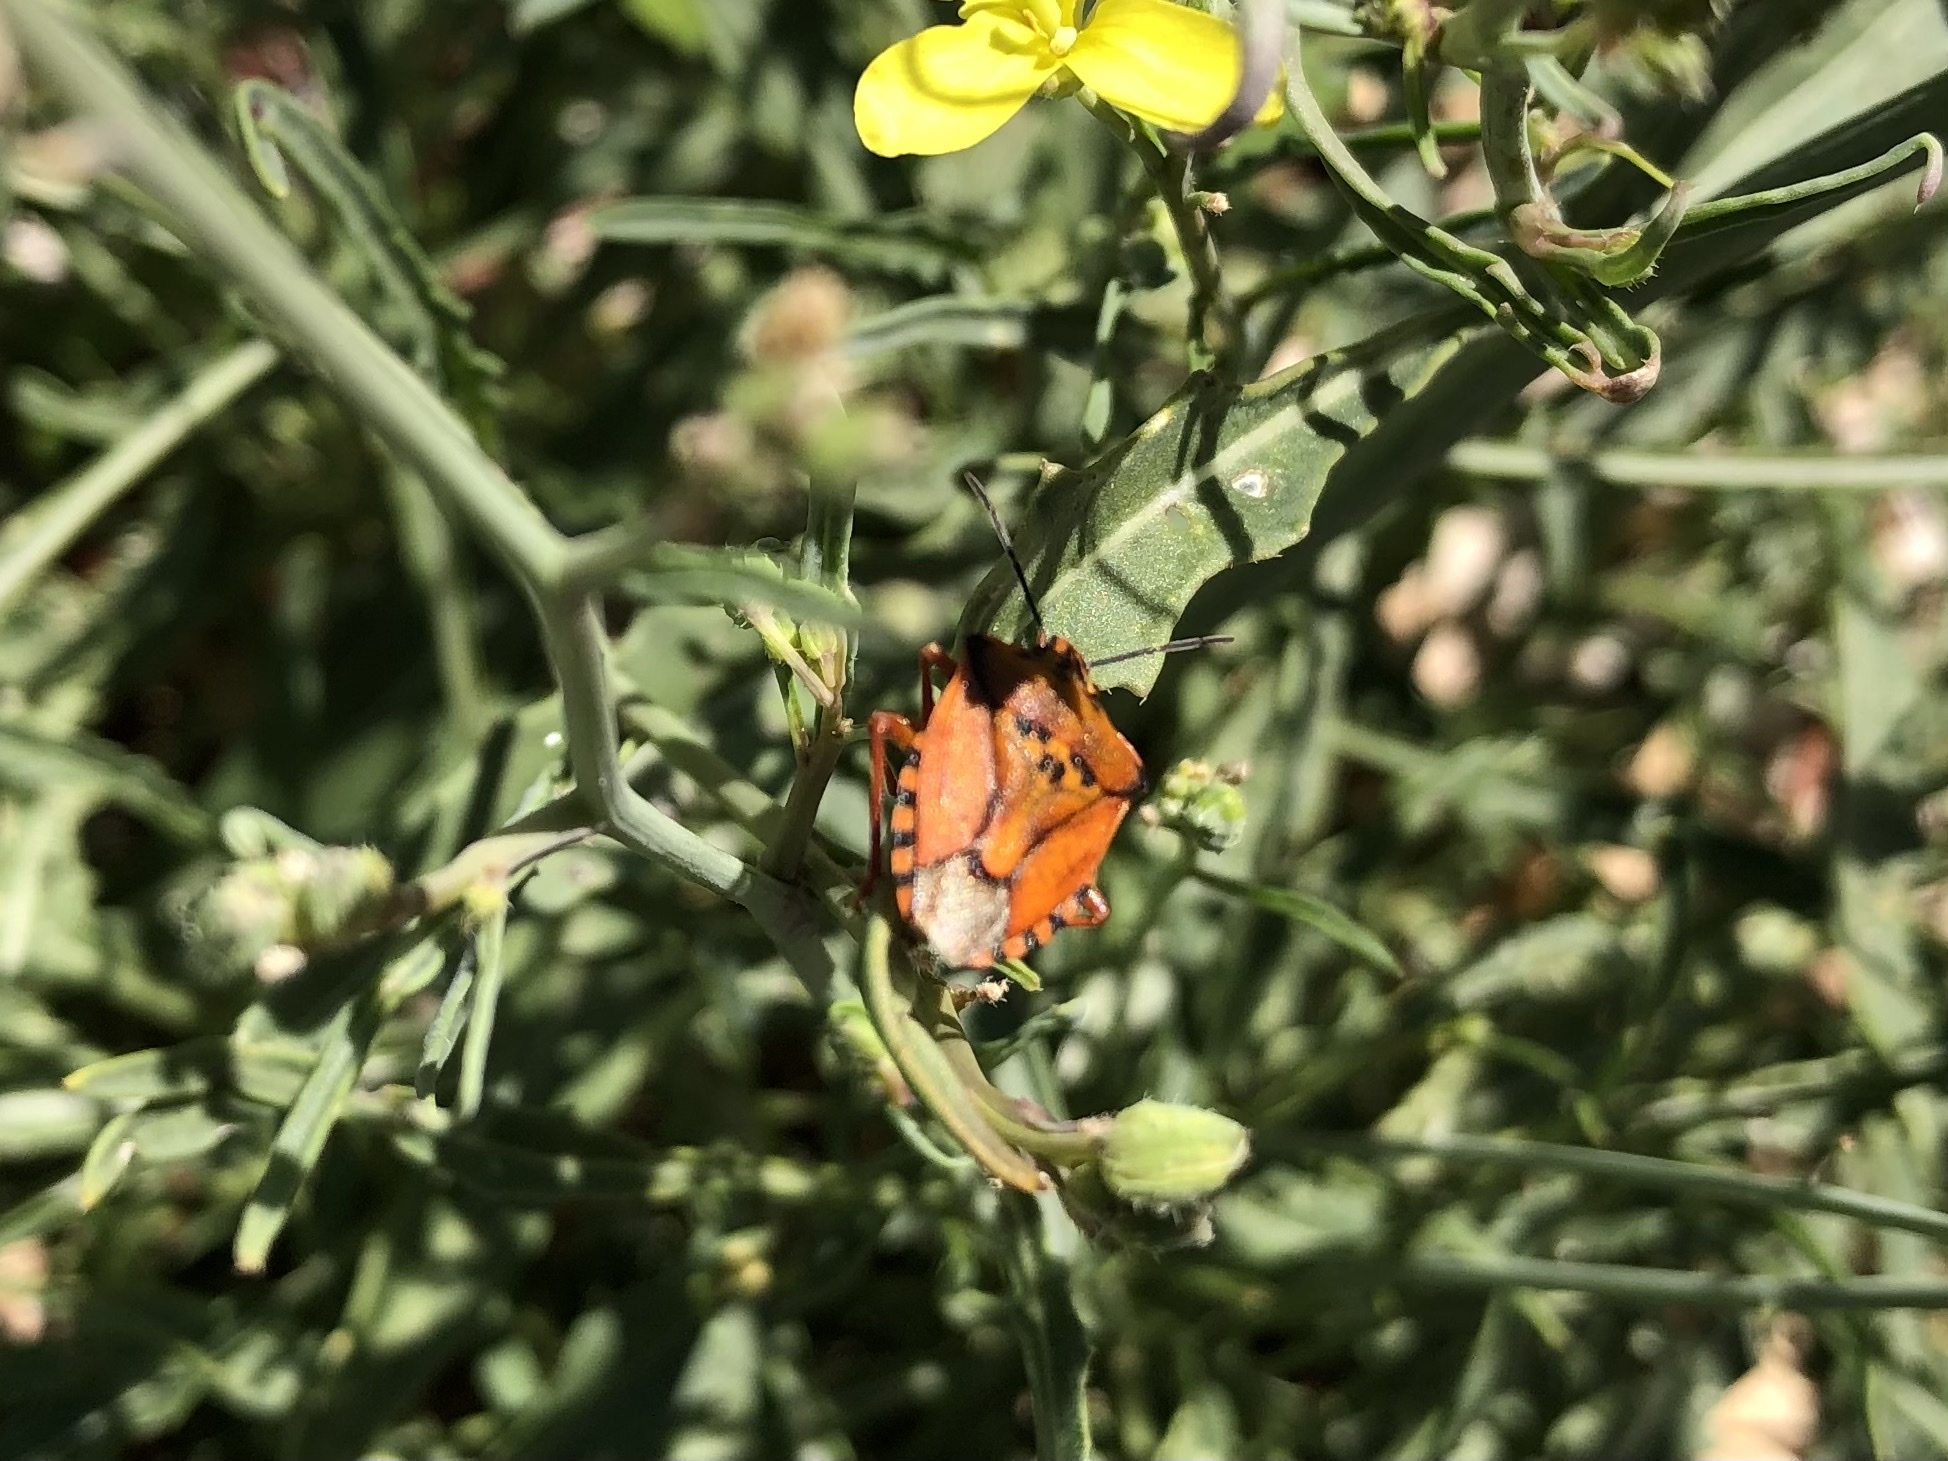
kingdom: Animalia
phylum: Arthropoda
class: Insecta
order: Hemiptera
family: Pentatomidae
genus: Carpocoris
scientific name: Carpocoris mediterraneus
